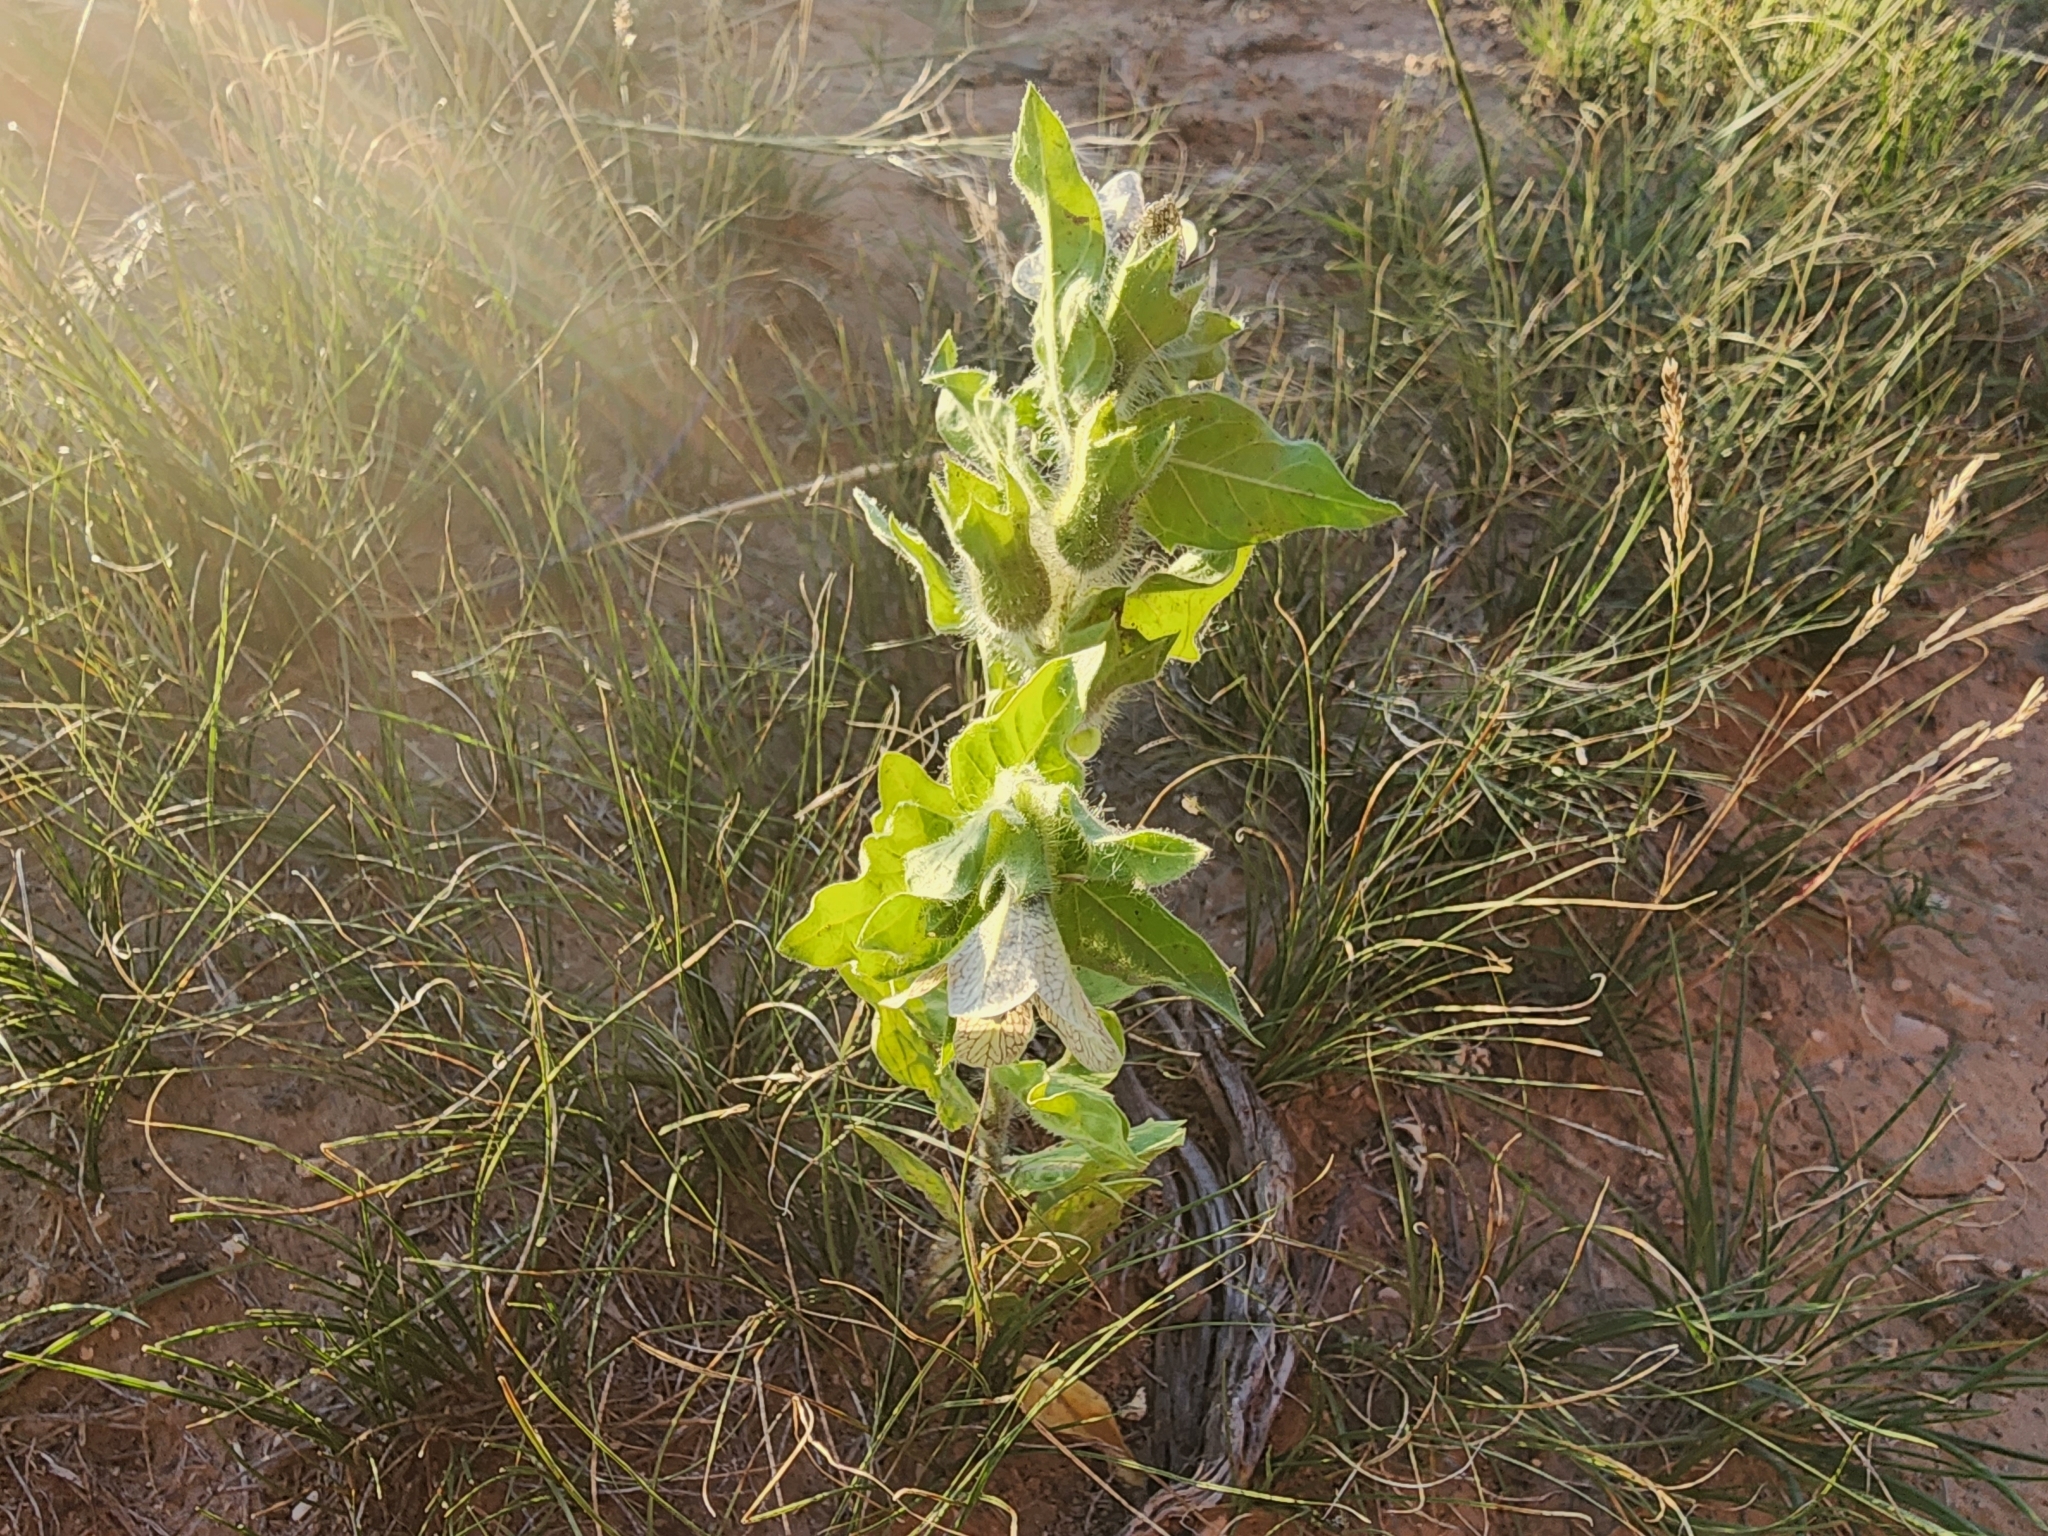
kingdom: Plantae
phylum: Tracheophyta
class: Magnoliopsida
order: Solanales
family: Solanaceae
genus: Hyoscyamus
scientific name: Hyoscyamus niger
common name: Henbane
